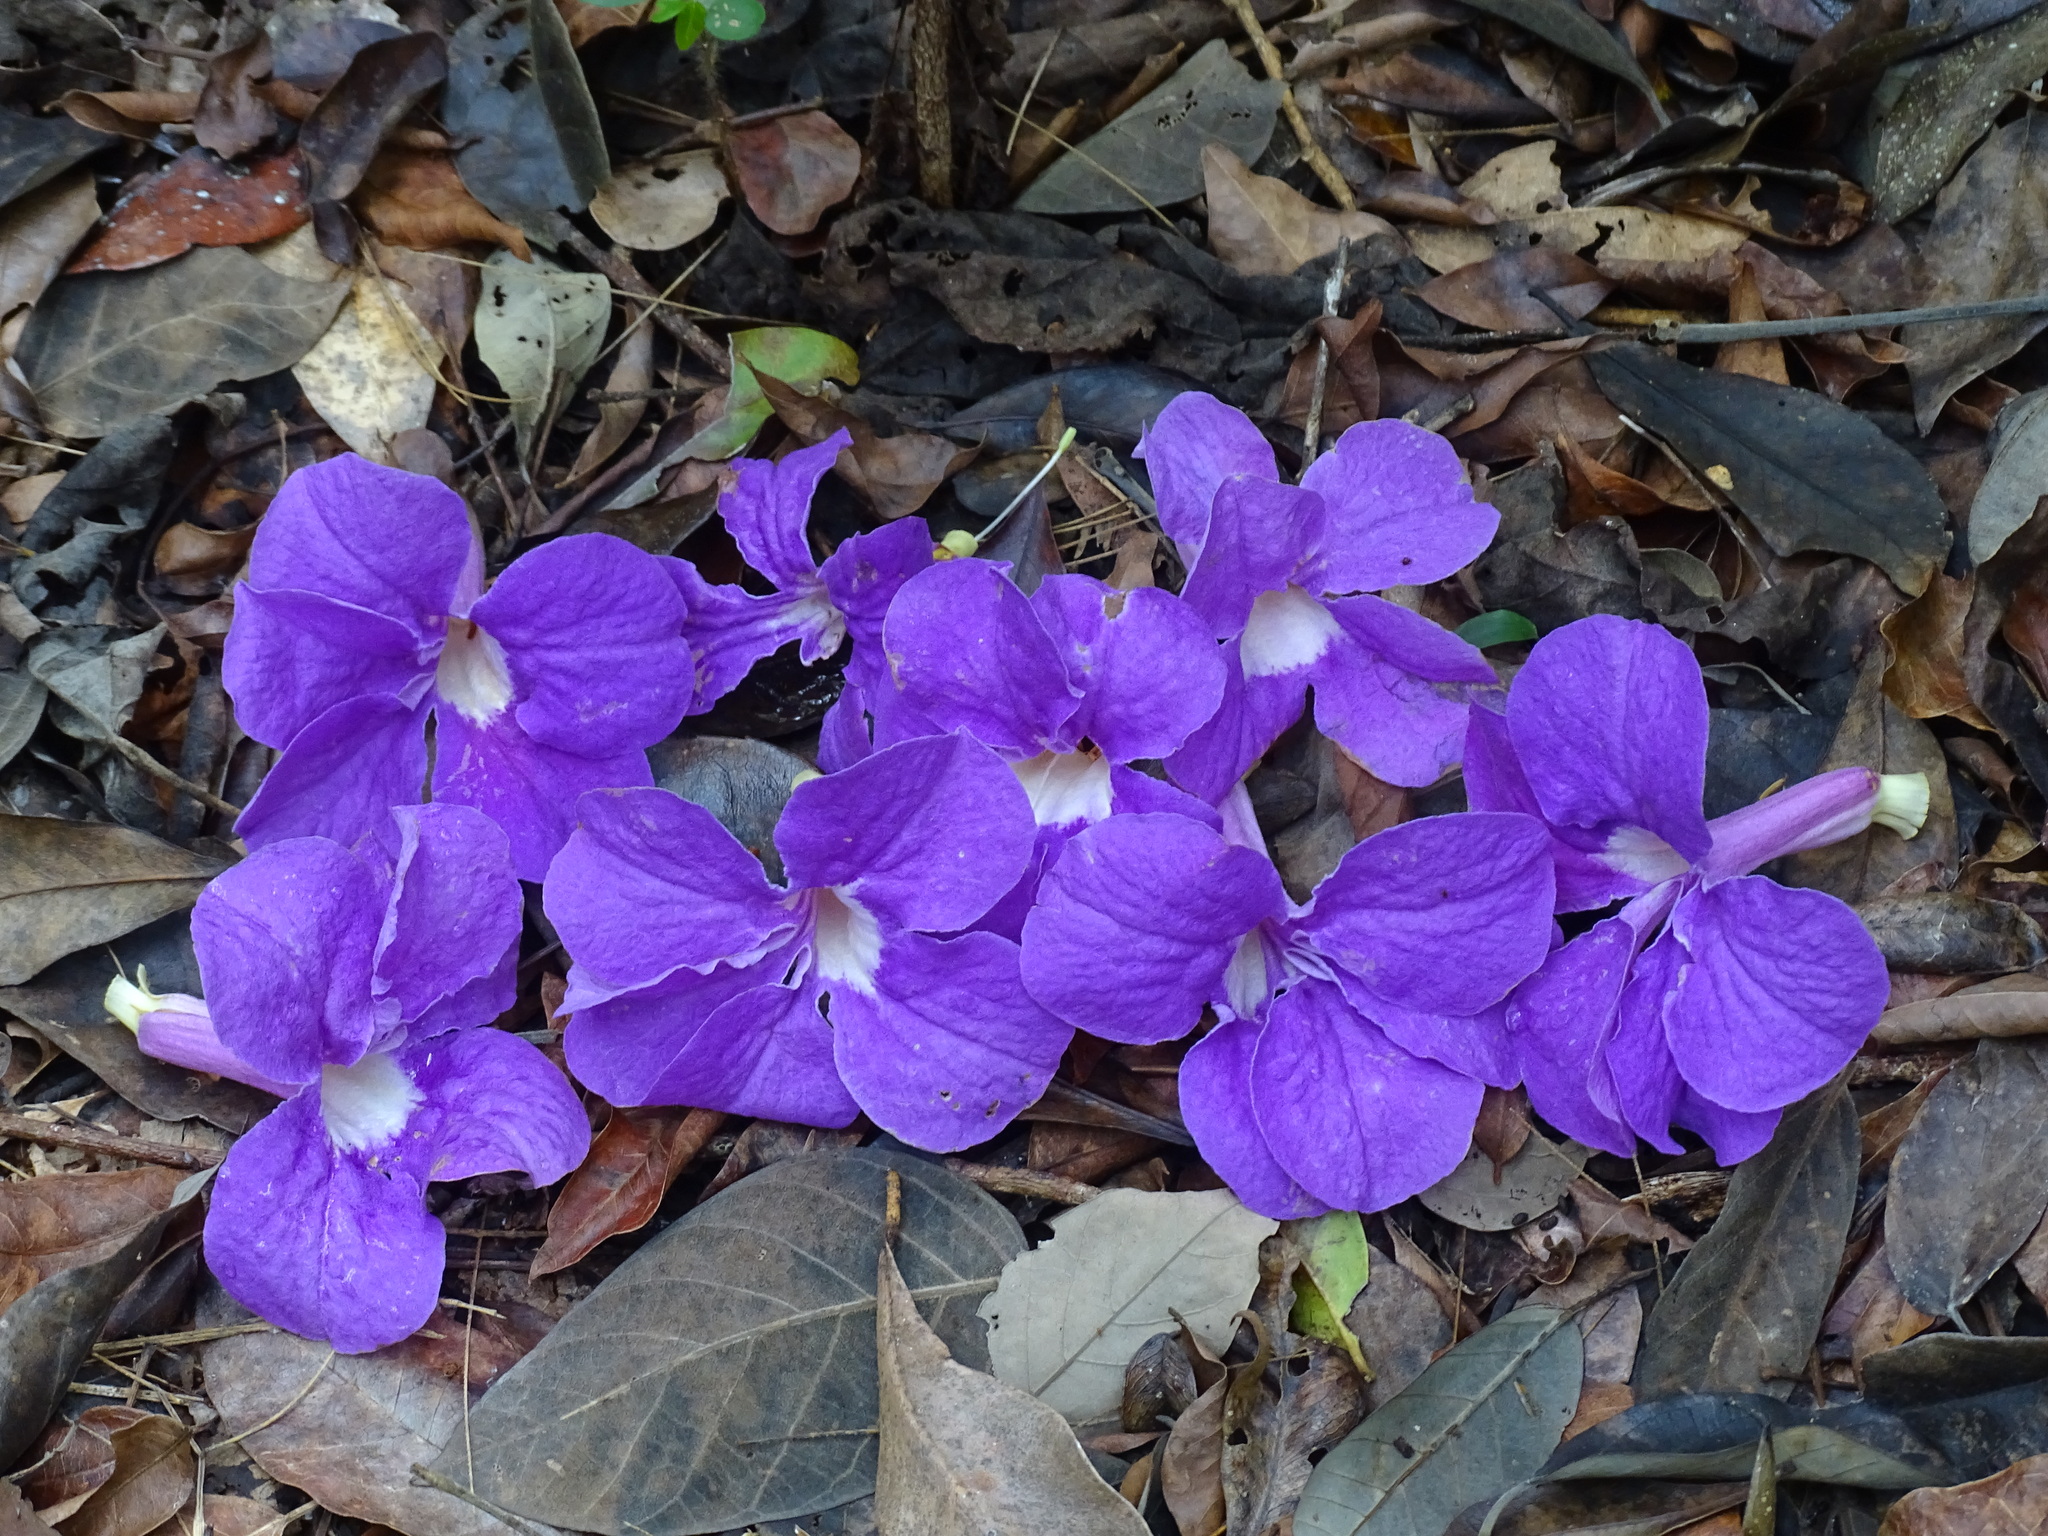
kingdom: Plantae
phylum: Tracheophyta
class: Magnoliopsida
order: Lamiales
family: Bignoniaceae
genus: Bignonia
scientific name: Bignonia neoheterophylla
